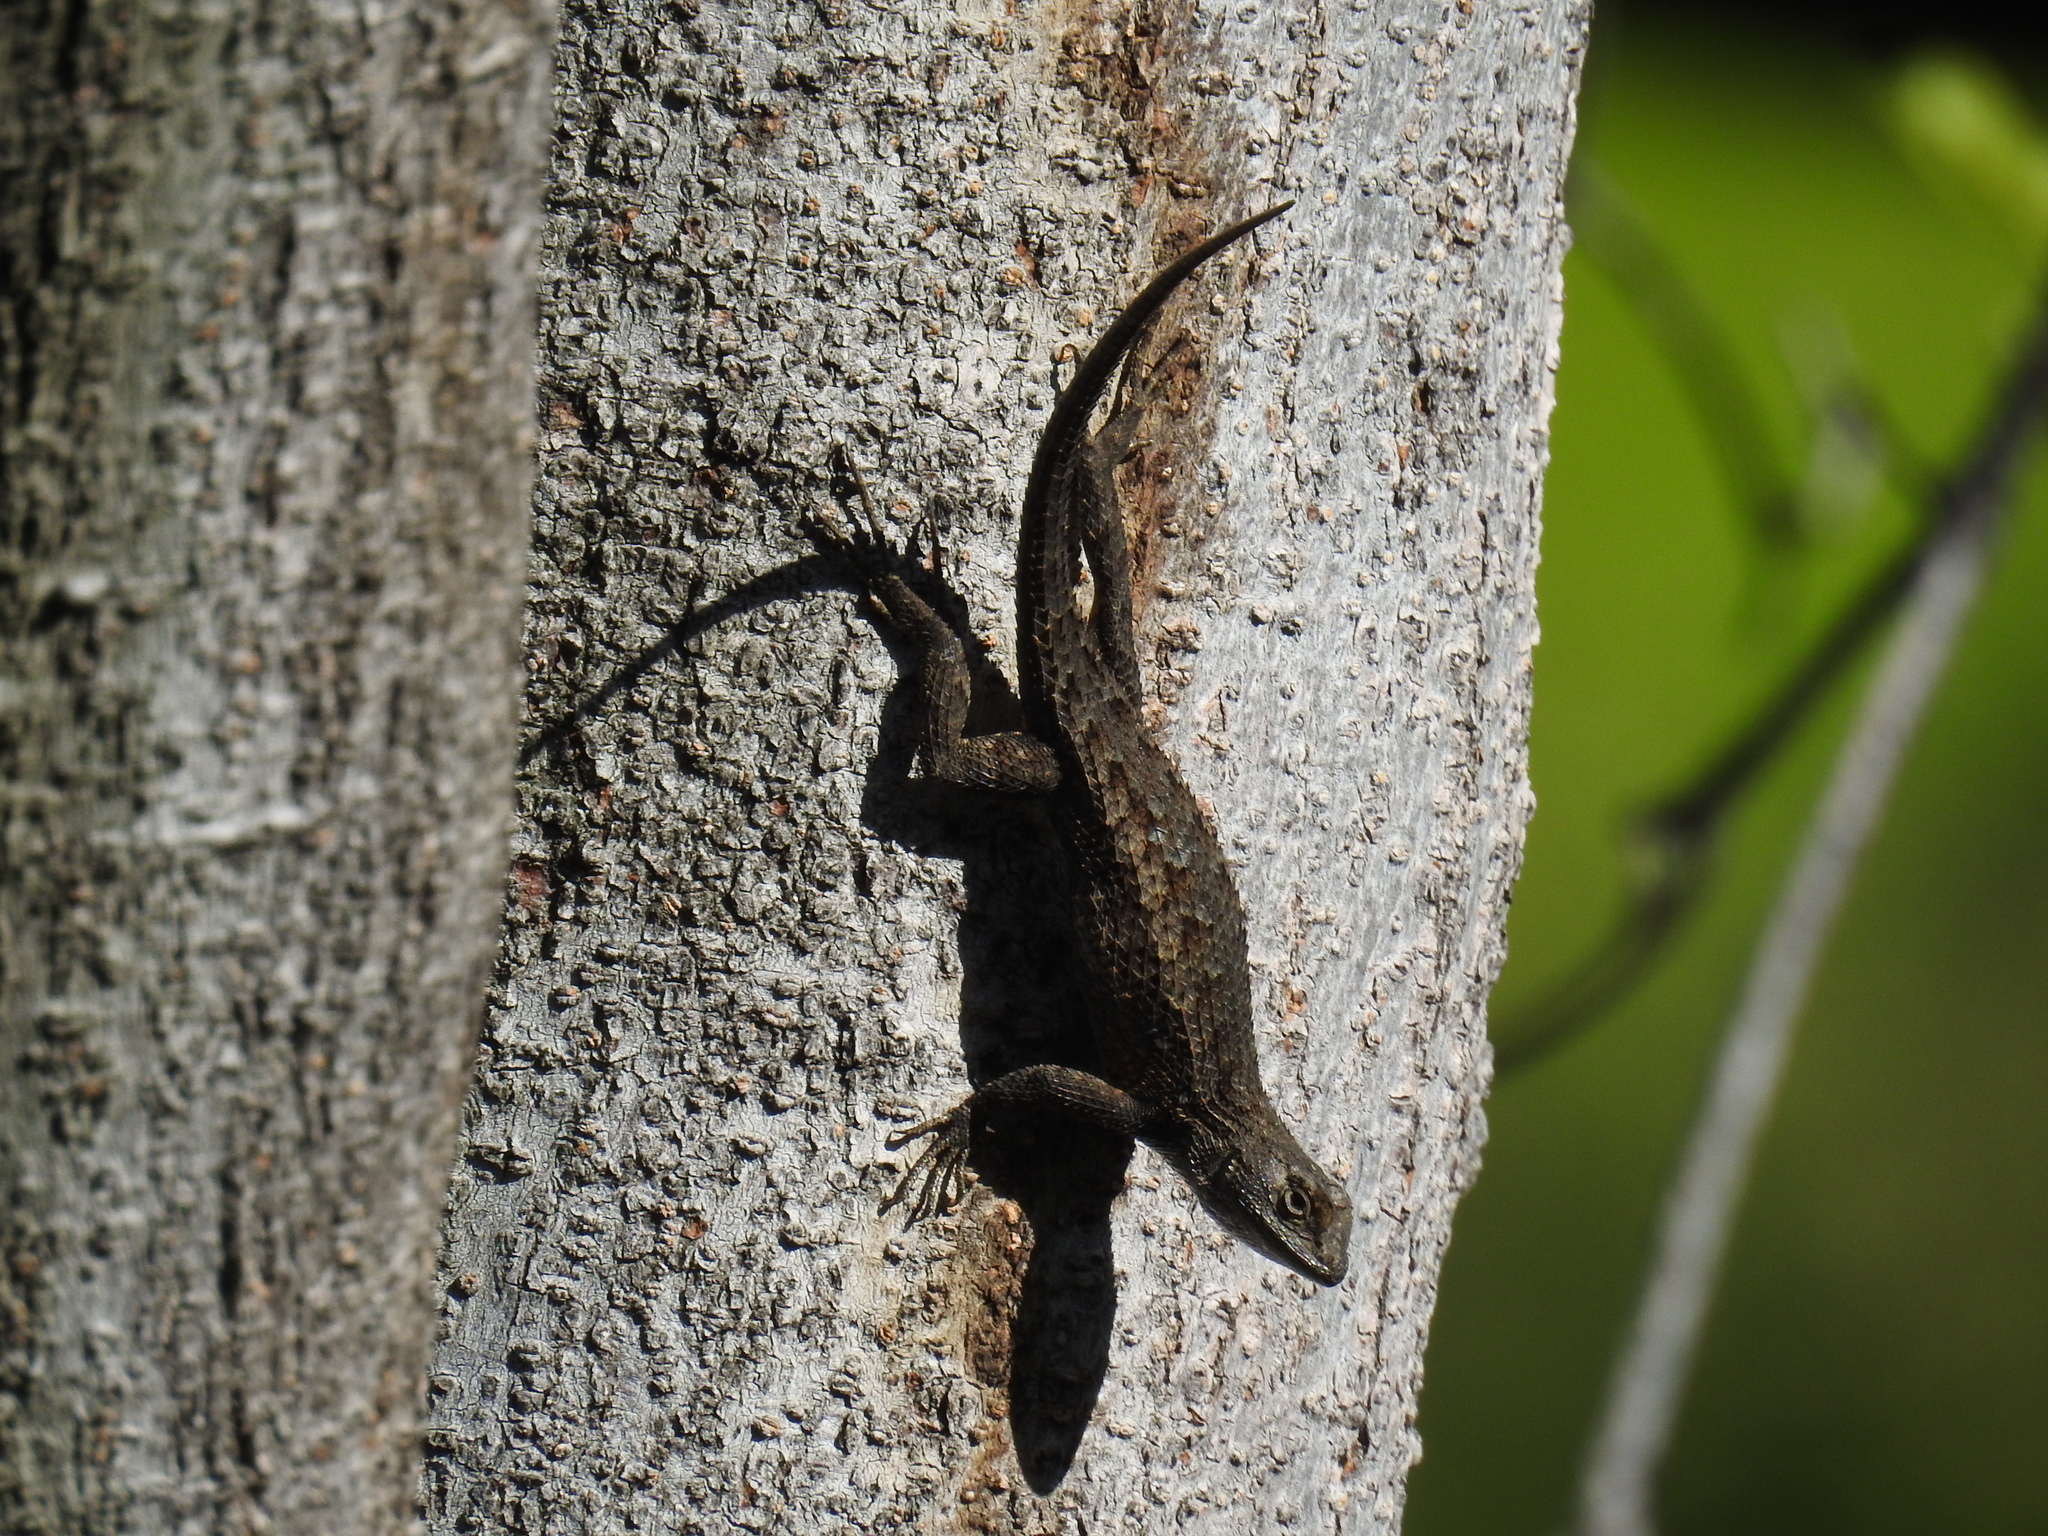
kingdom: Animalia
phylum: Chordata
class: Squamata
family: Phrynosomatidae
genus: Sceloporus
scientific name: Sceloporus occidentalis
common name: Western fence lizard
